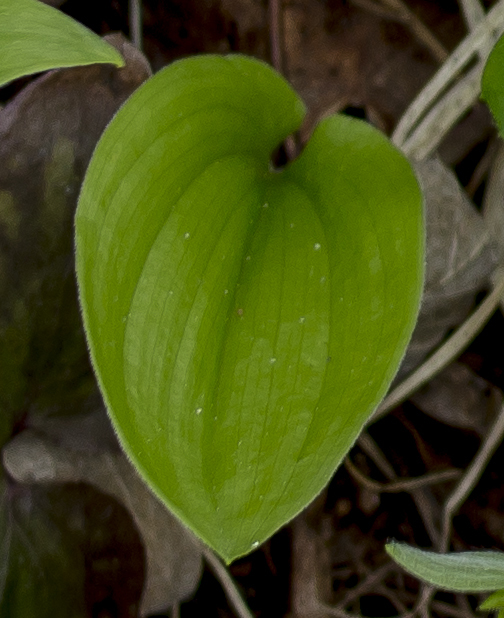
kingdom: Plantae
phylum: Tracheophyta
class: Liliopsida
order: Asparagales
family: Asparagaceae
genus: Maianthemum
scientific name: Maianthemum canadense
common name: False lily-of-the-valley
